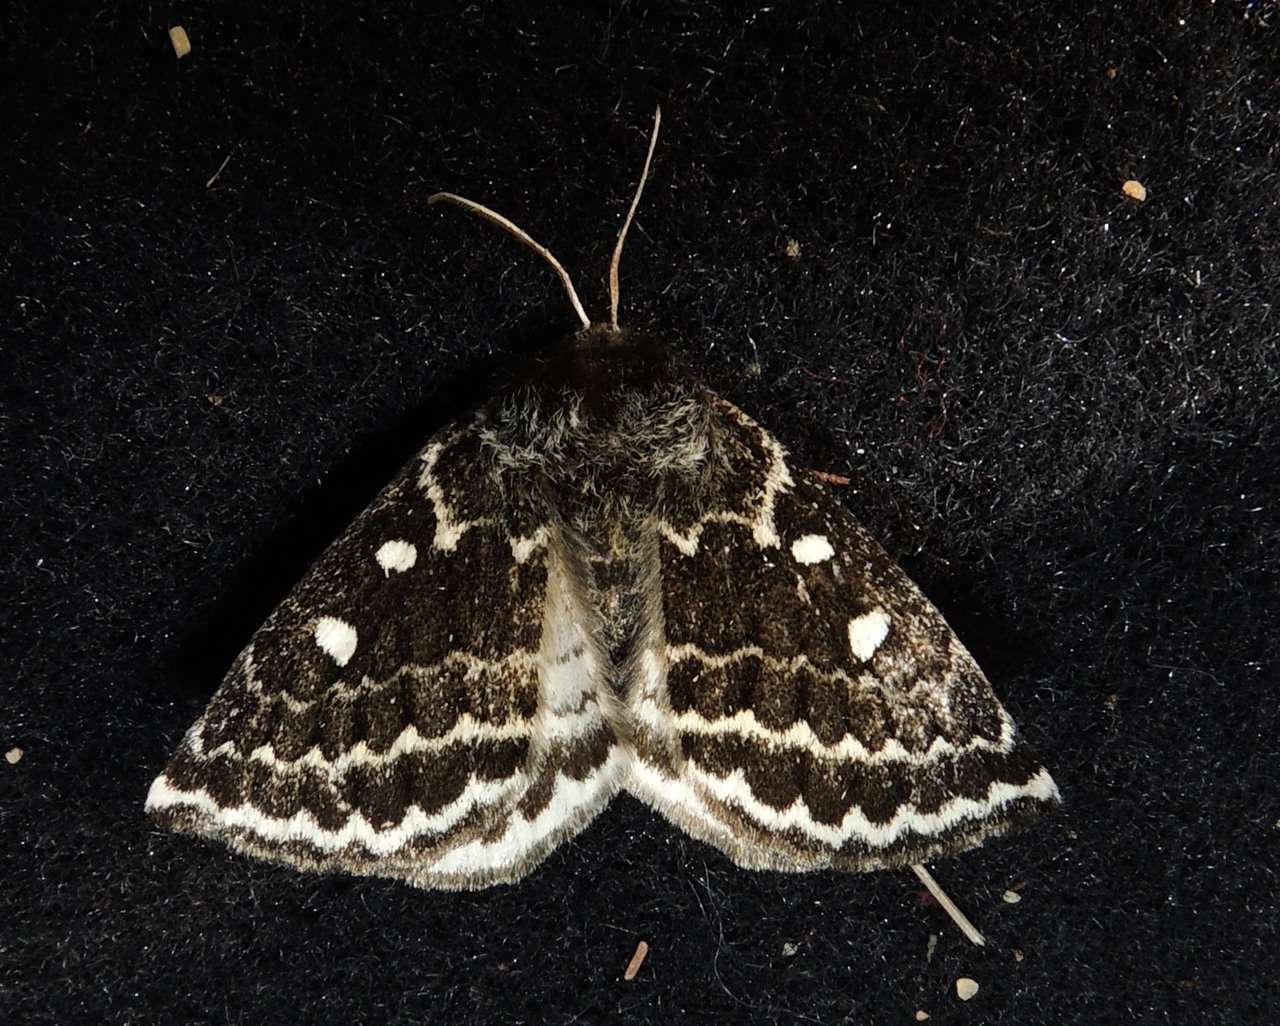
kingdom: Animalia
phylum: Arthropoda
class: Insecta
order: Lepidoptera
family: Anthelidae
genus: Anthela
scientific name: Anthela denticulata
